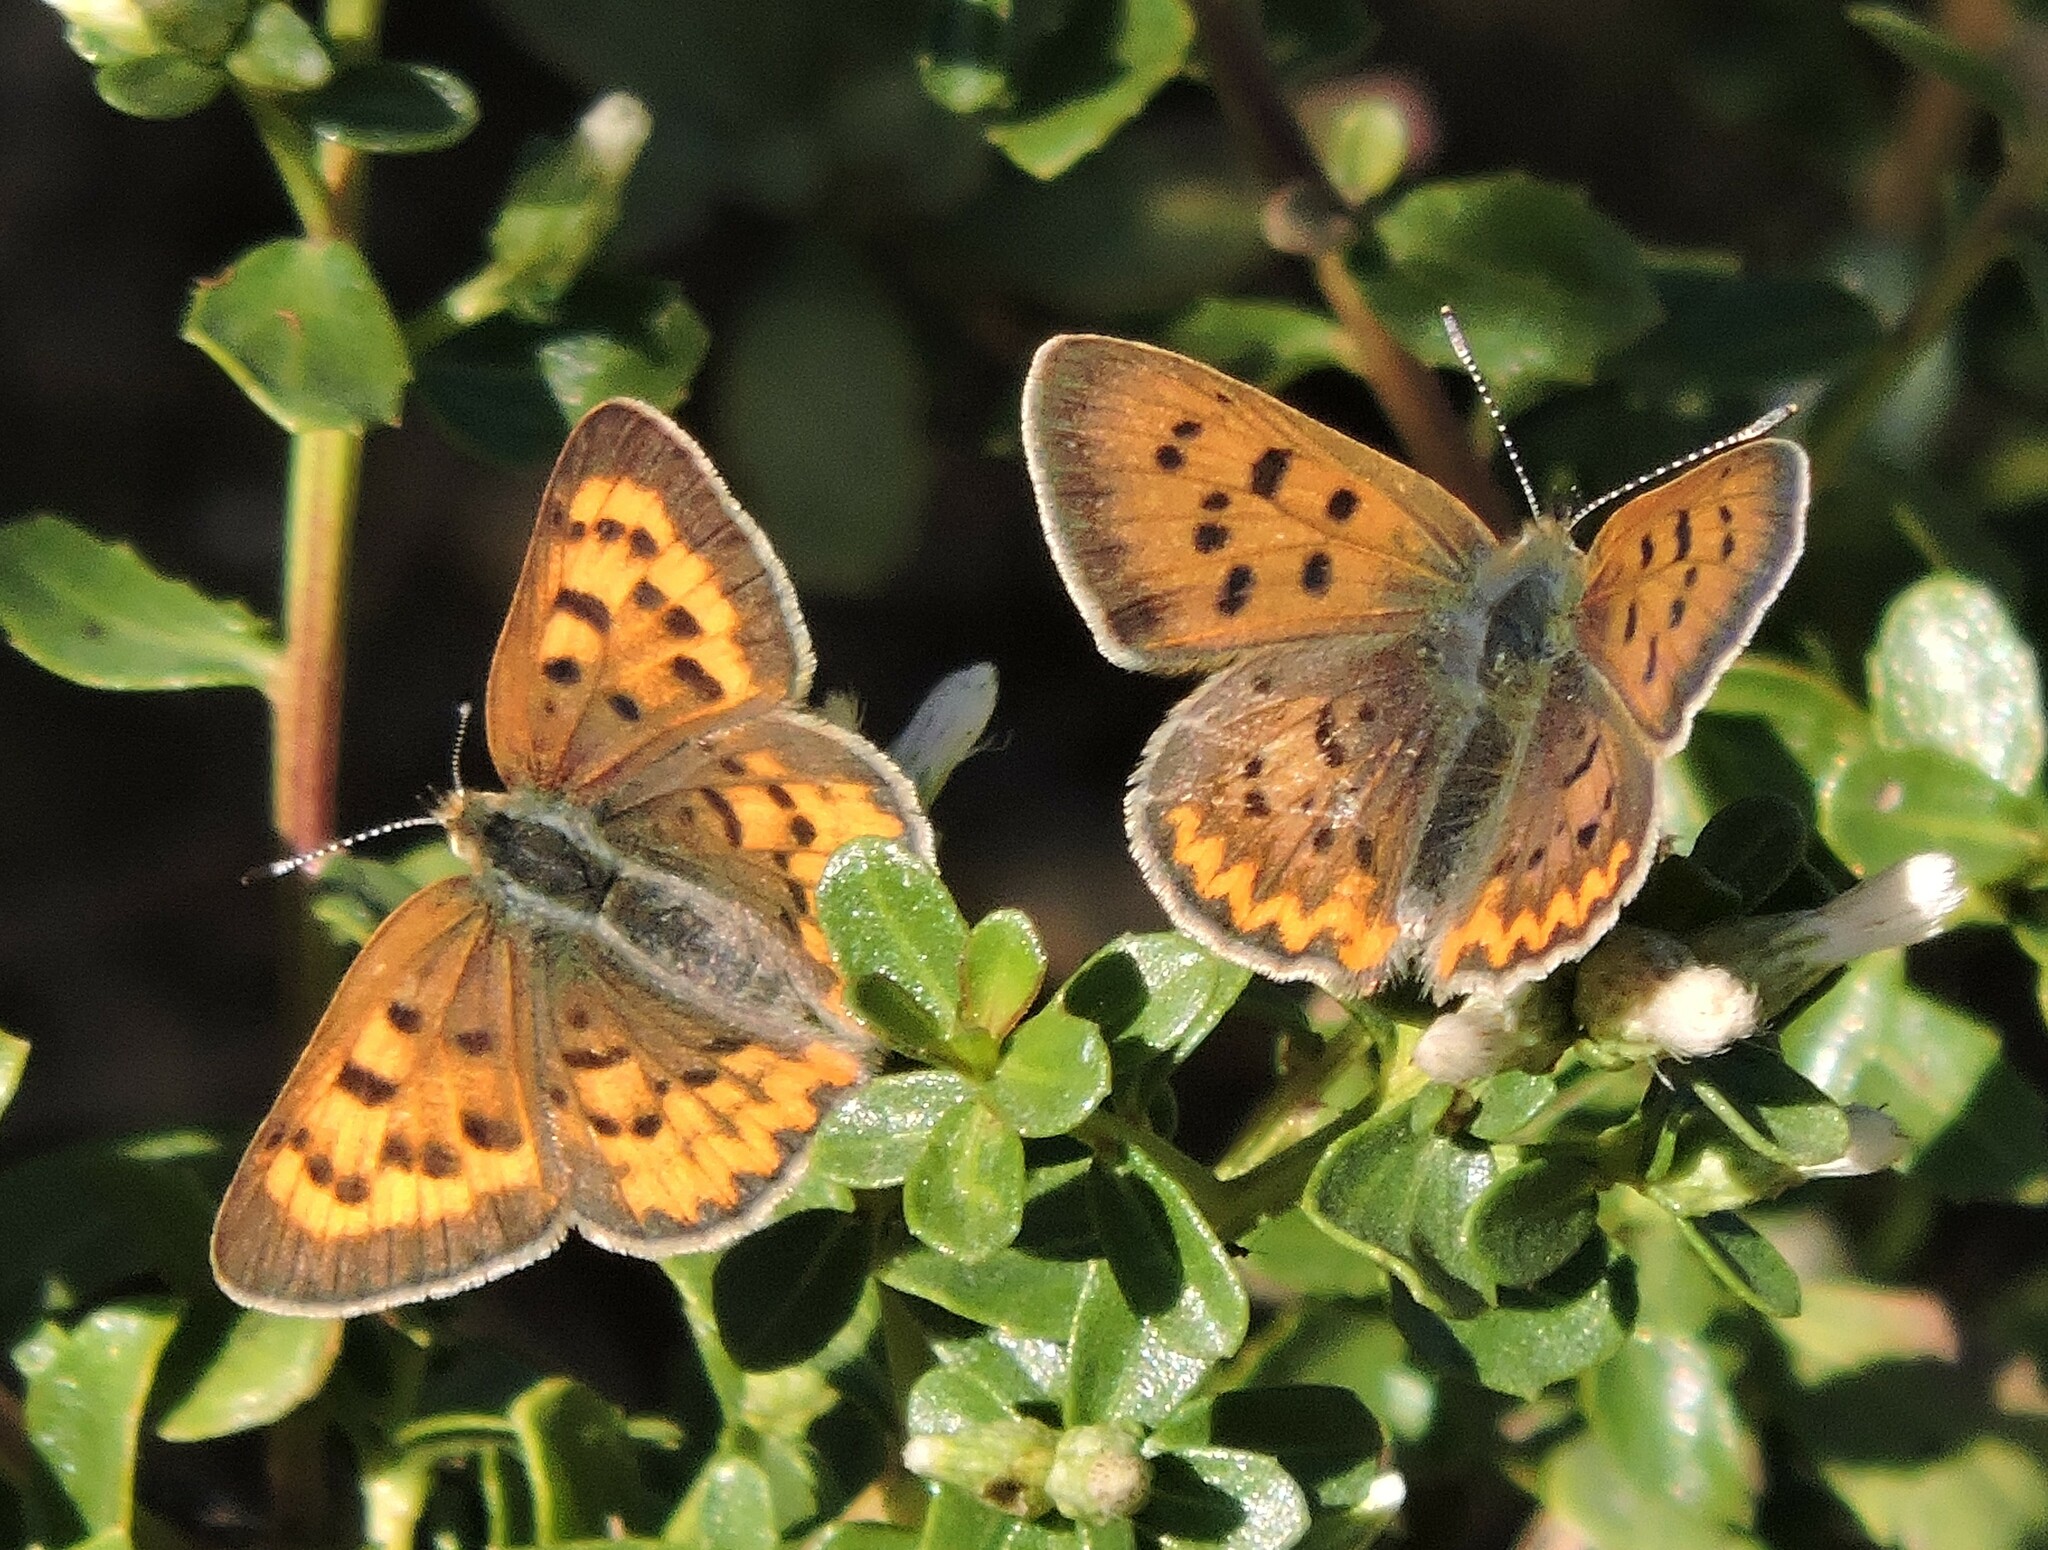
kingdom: Animalia
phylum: Arthropoda
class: Insecta
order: Lepidoptera
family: Lycaenidae
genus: Tharsalea
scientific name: Tharsalea helloides
